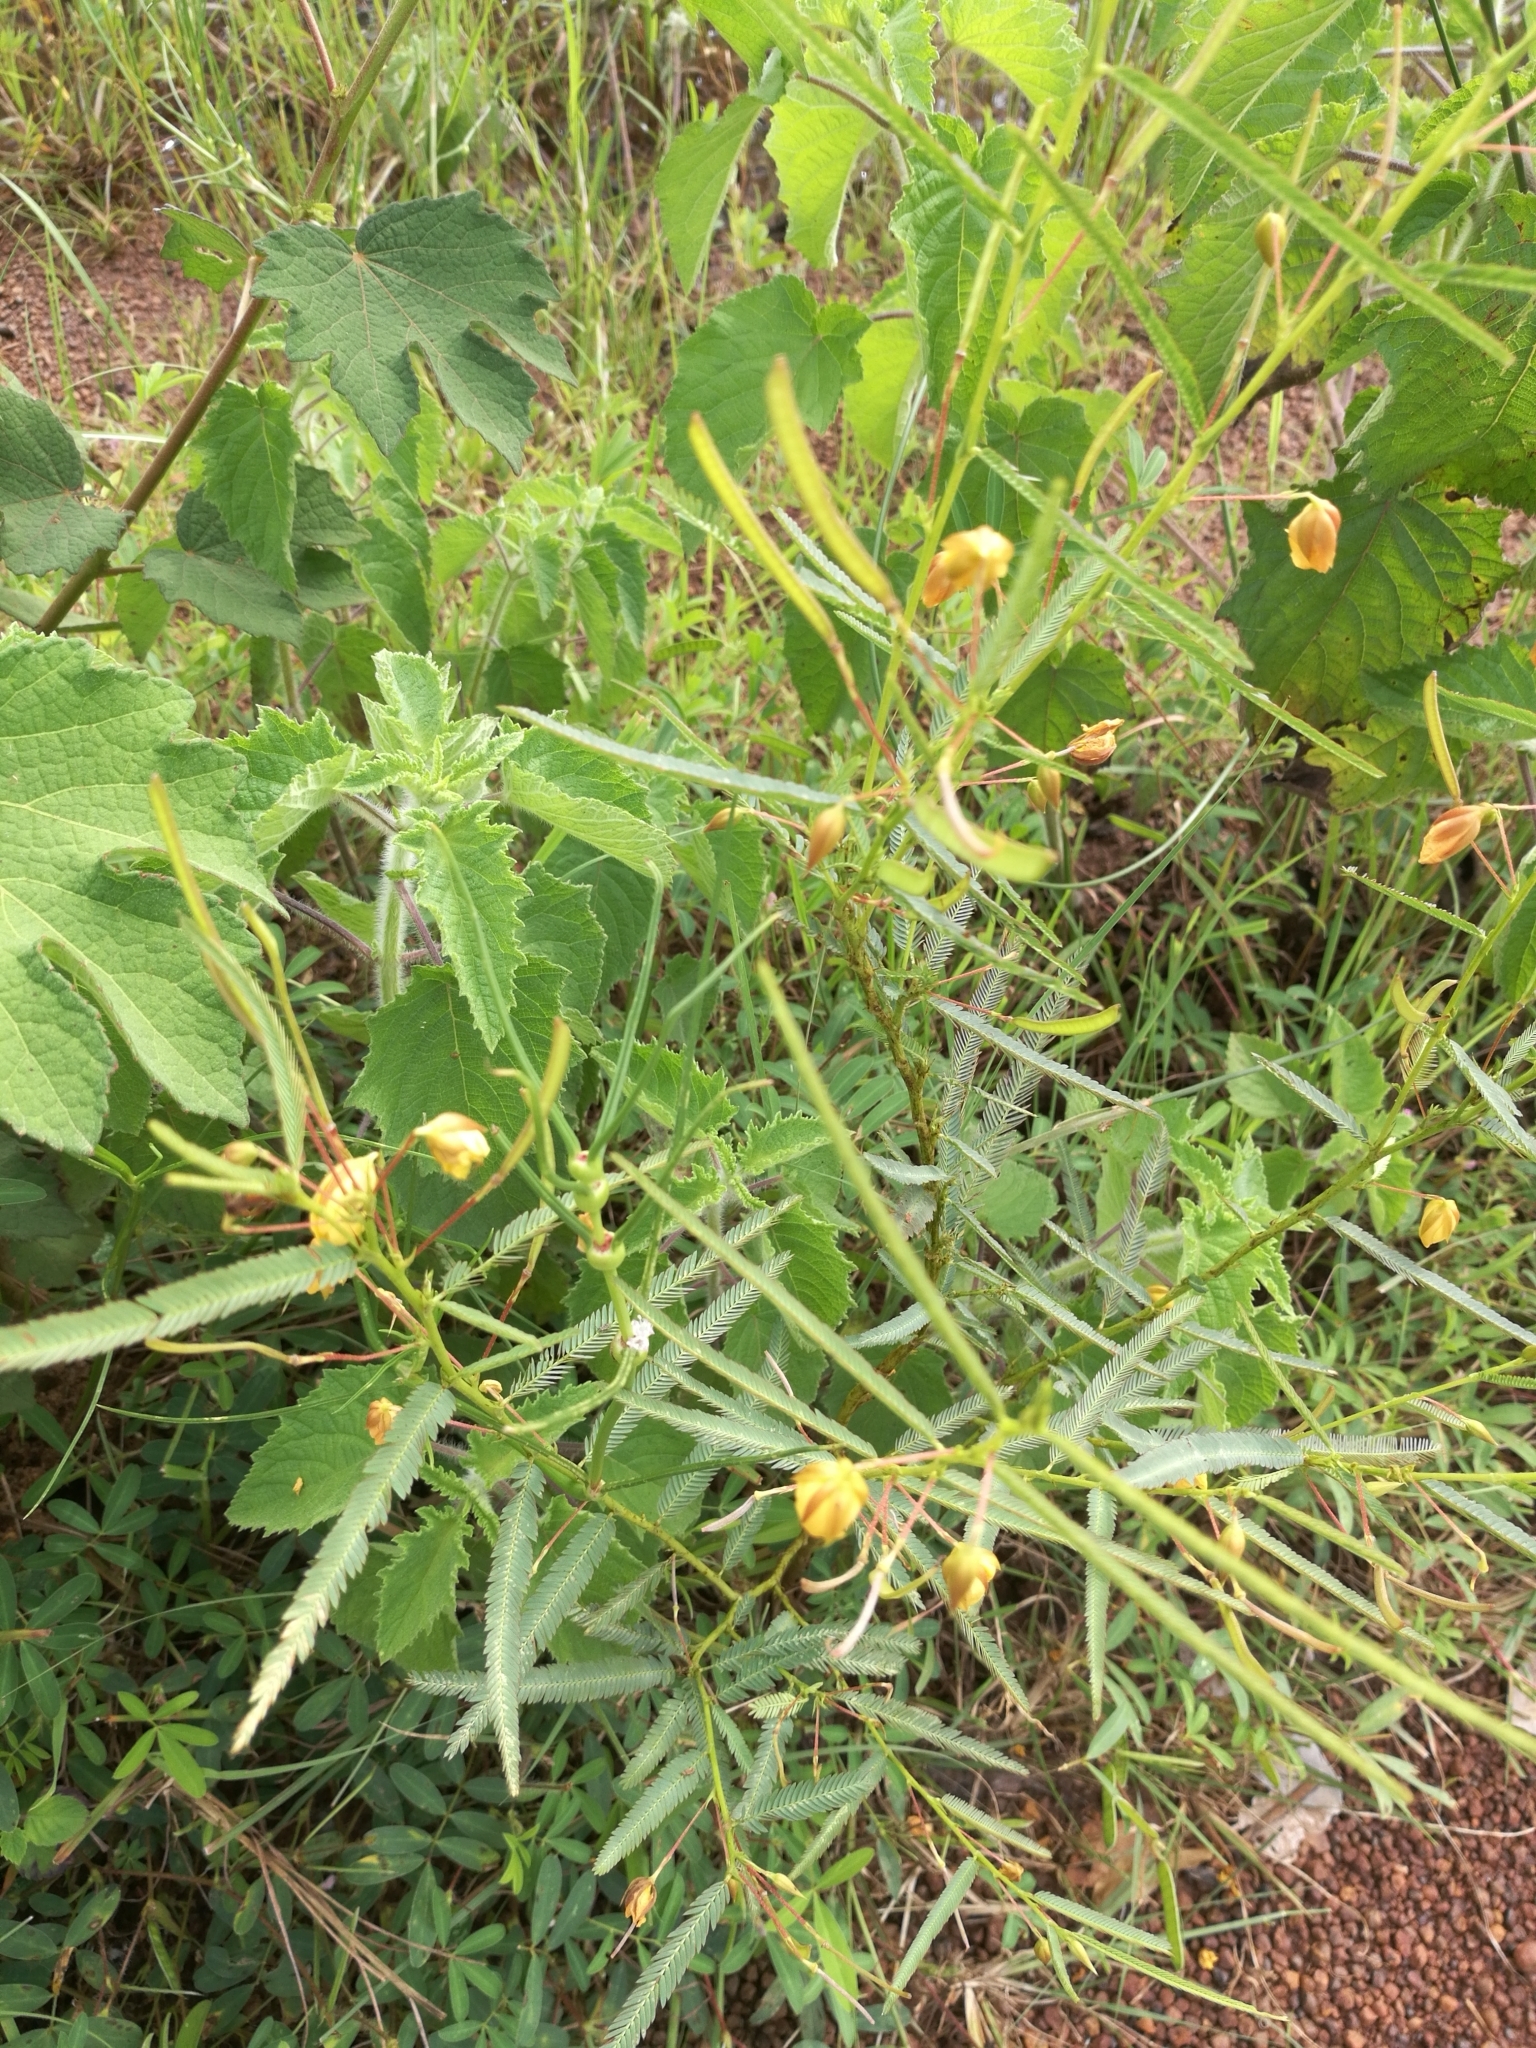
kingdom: Plantae
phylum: Tracheophyta
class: Magnoliopsida
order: Fabales
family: Fabaceae
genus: Chamaecrista
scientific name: Chamaecrista mimosoides
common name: Fish-bone cassia
